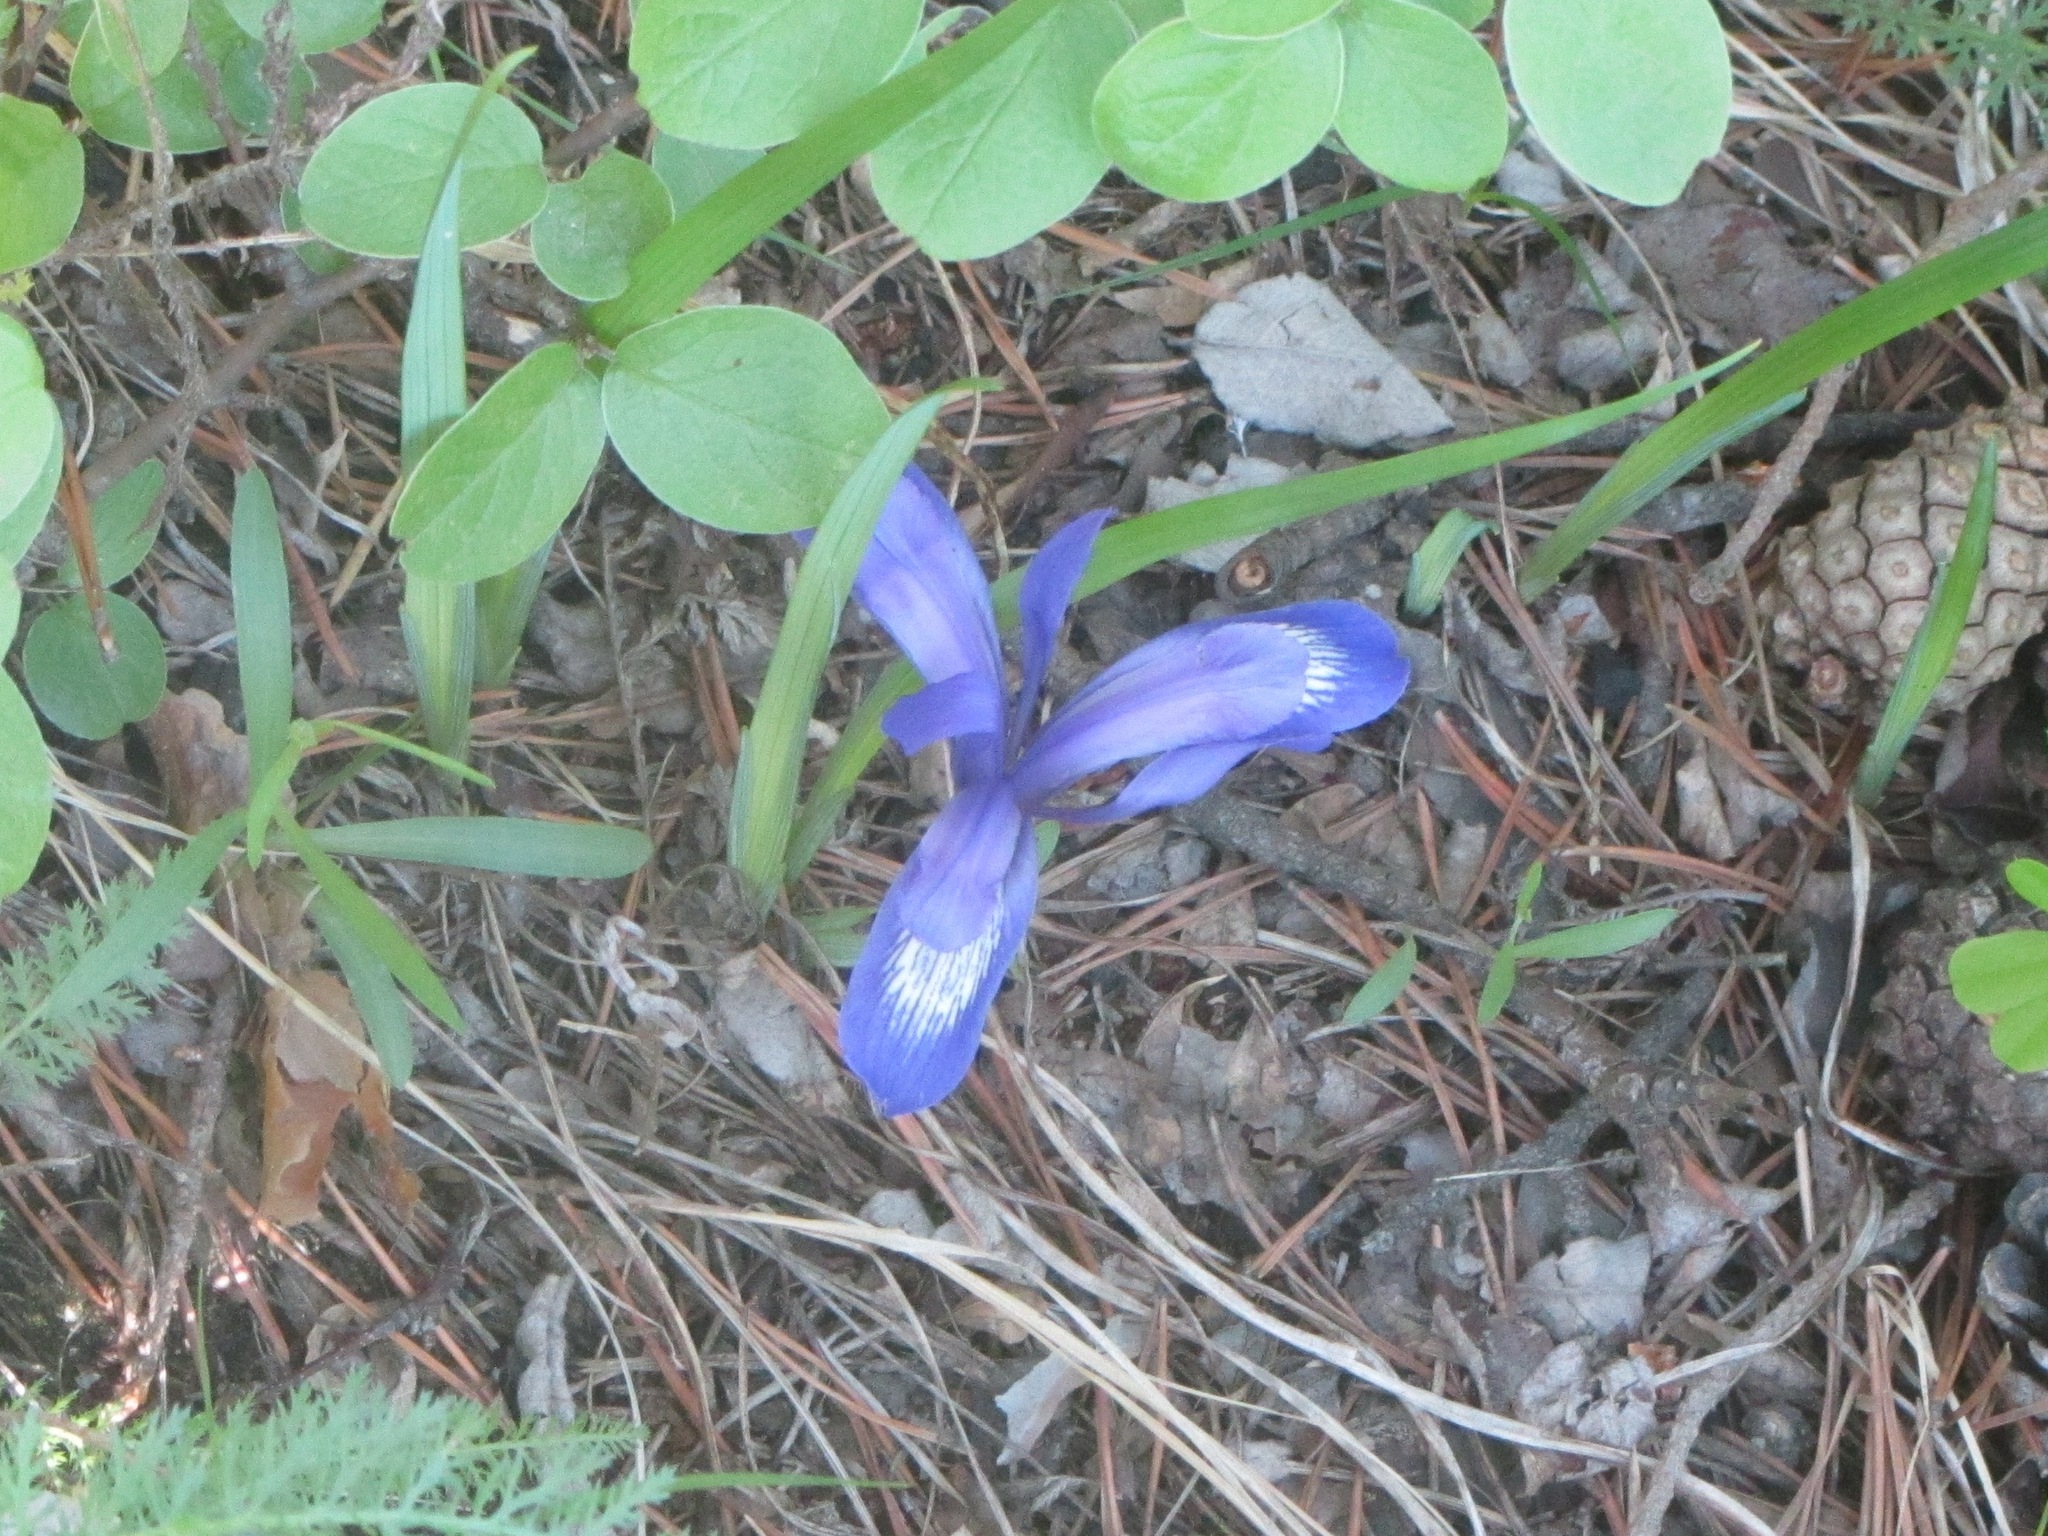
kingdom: Plantae
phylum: Tracheophyta
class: Liliopsida
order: Asparagales
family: Iridaceae
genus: Iris
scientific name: Iris ruthenica
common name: Purple-bract iris
